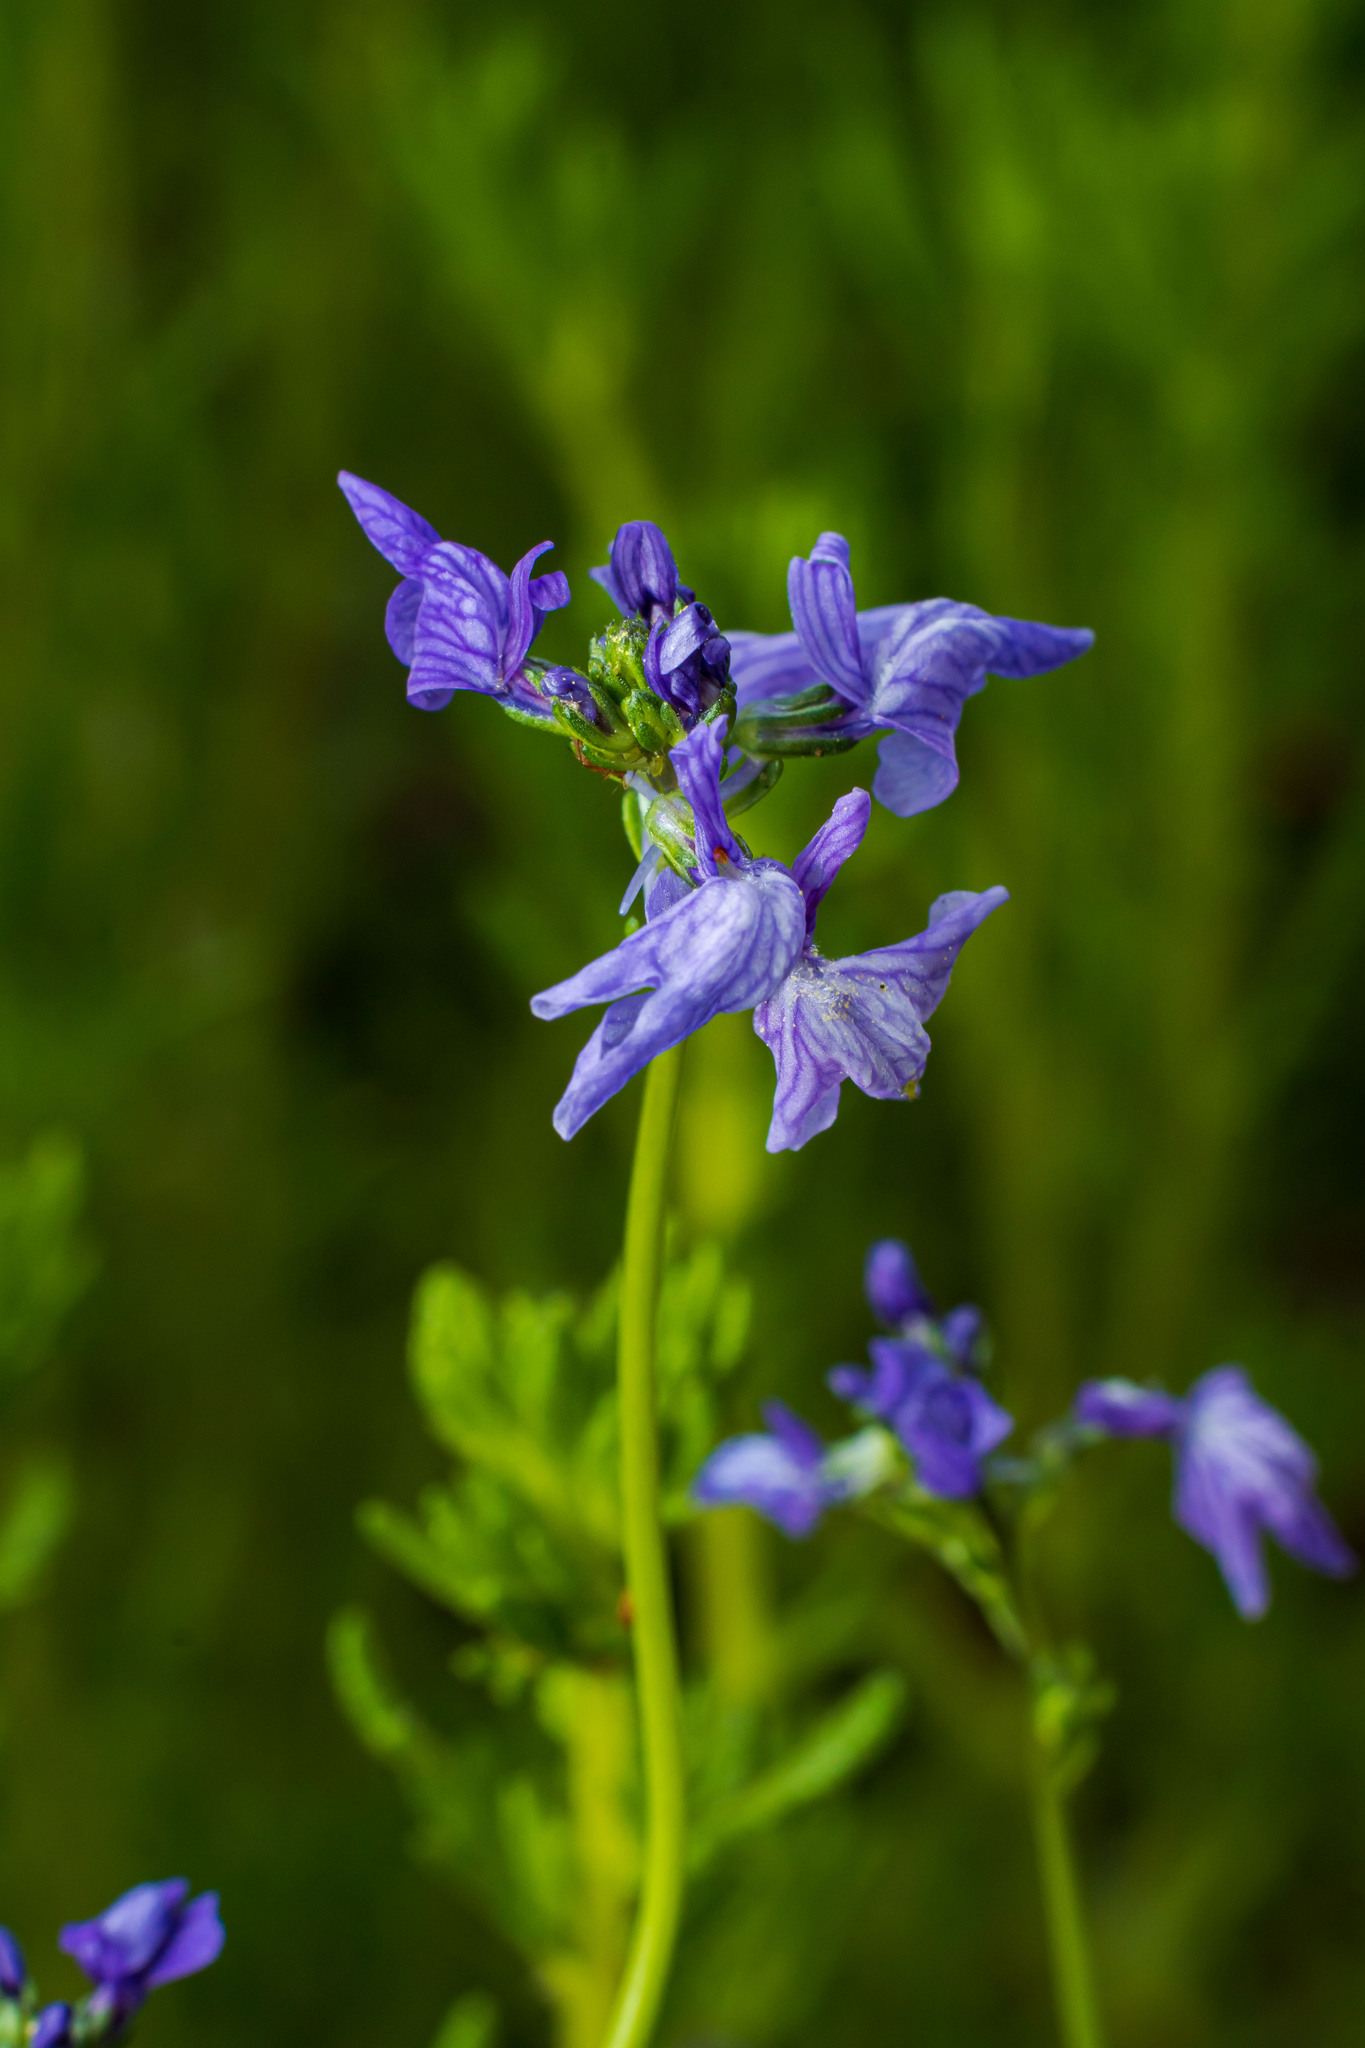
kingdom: Plantae
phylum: Tracheophyta
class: Magnoliopsida
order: Lamiales
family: Plantaginaceae
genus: Nuttallanthus
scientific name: Nuttallanthus texanus
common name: Texas toadflax
